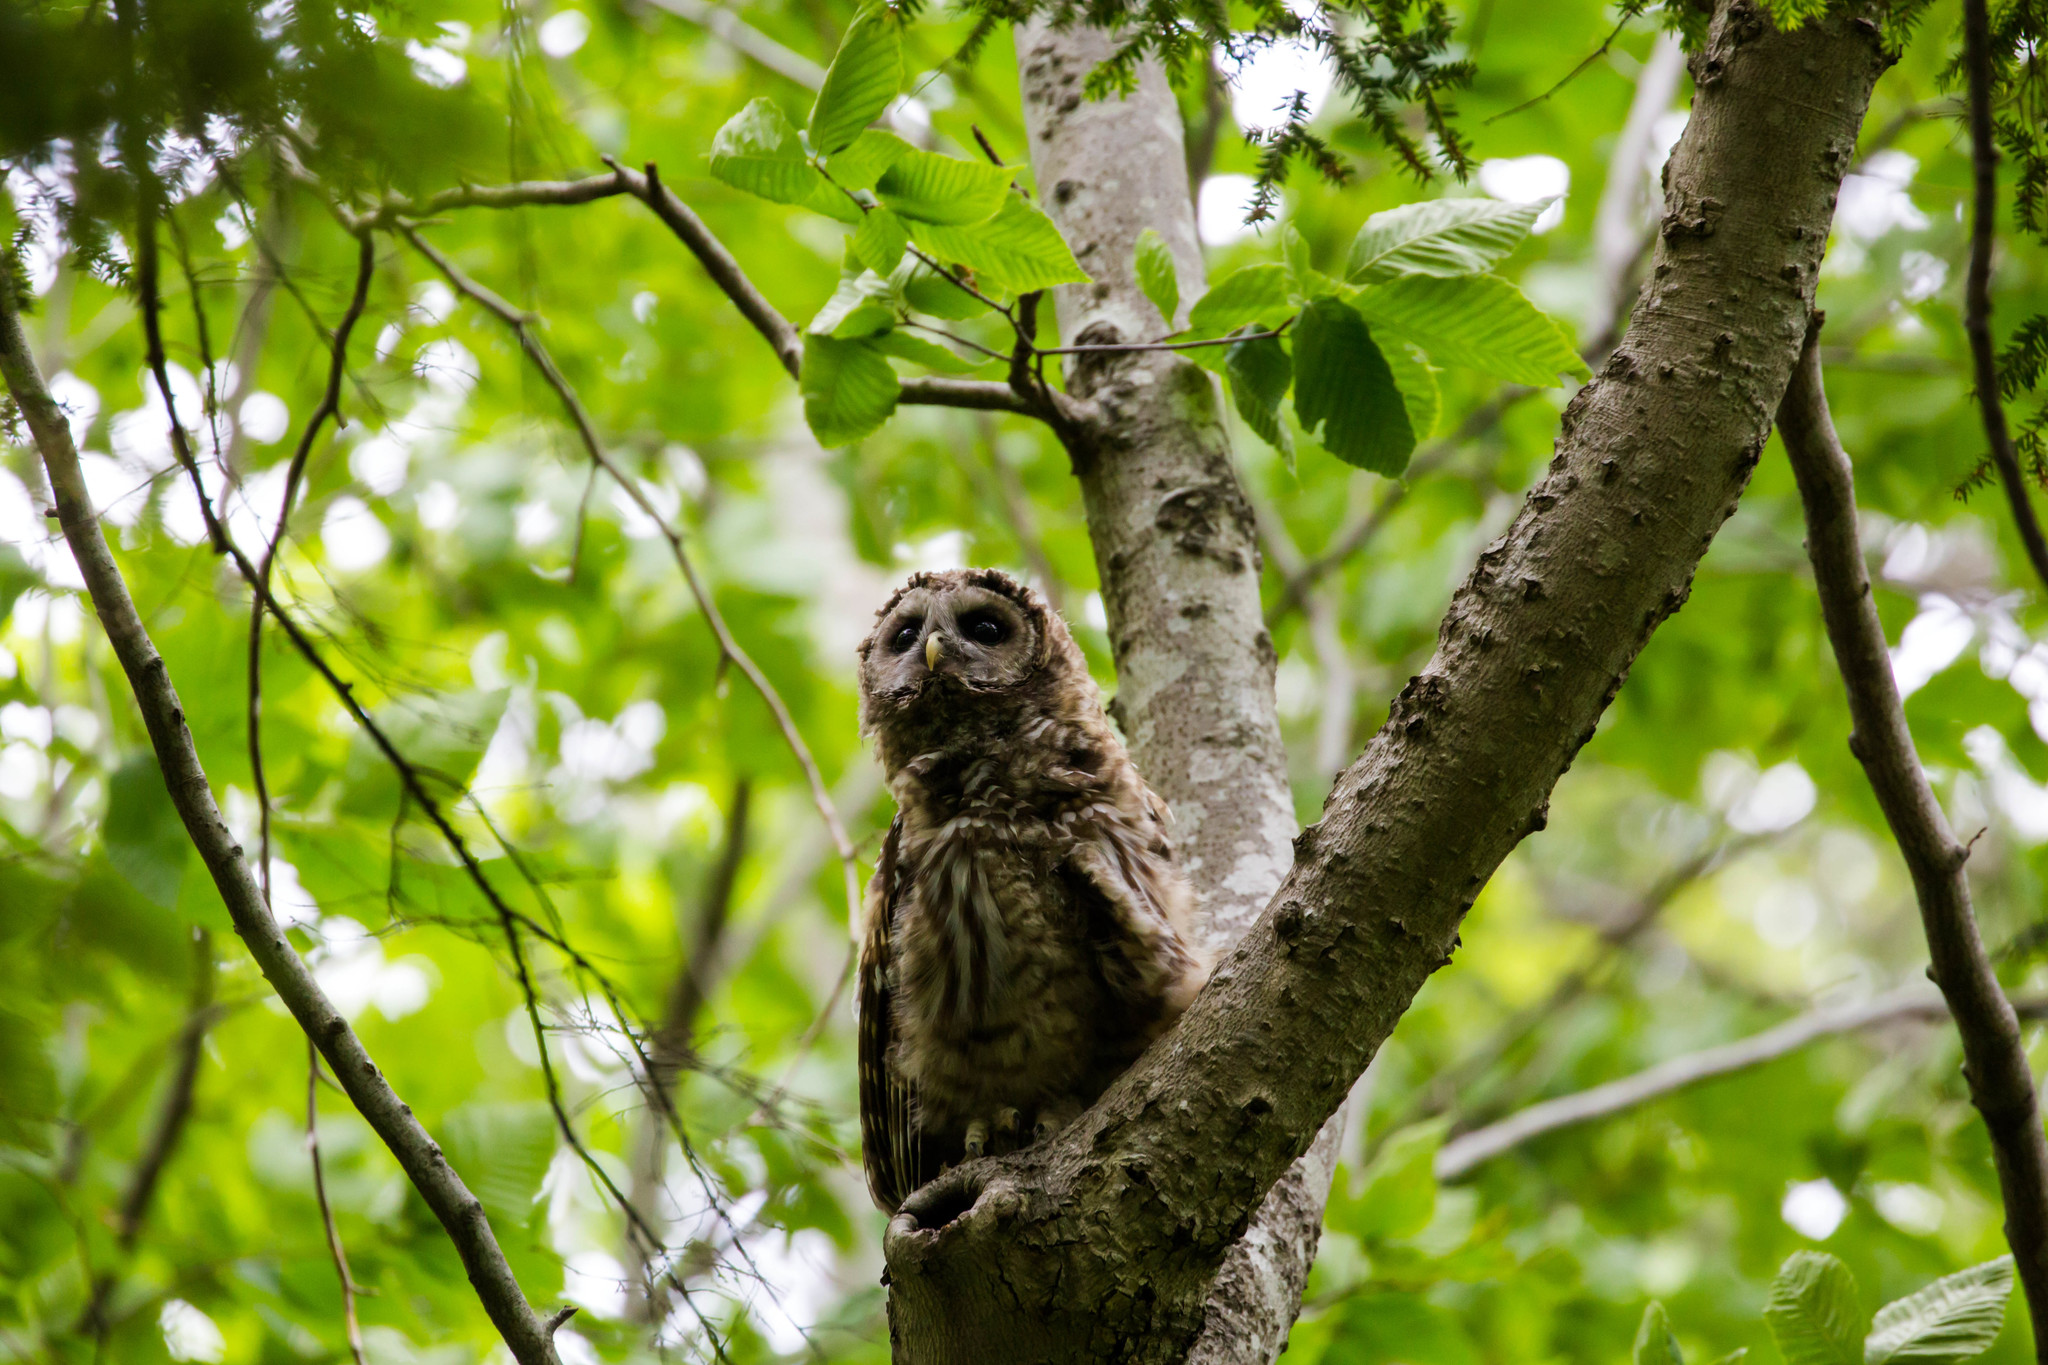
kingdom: Animalia
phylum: Chordata
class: Aves
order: Strigiformes
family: Strigidae
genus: Strix
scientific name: Strix varia
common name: Barred owl
